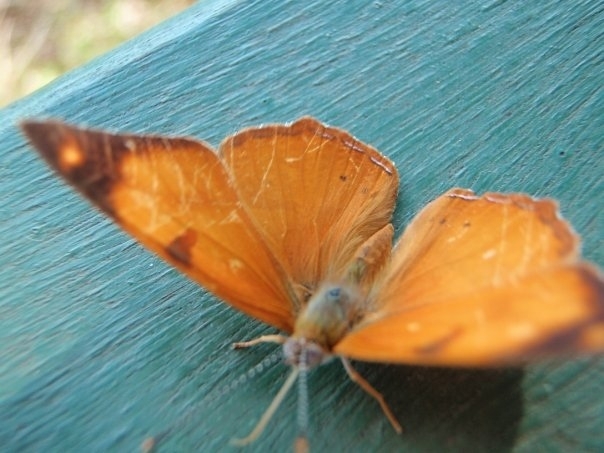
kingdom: Animalia
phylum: Arthropoda
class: Insecta
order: Lepidoptera
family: Nymphalidae
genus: Nica
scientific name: Nica flavilla
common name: Mandarin nica
